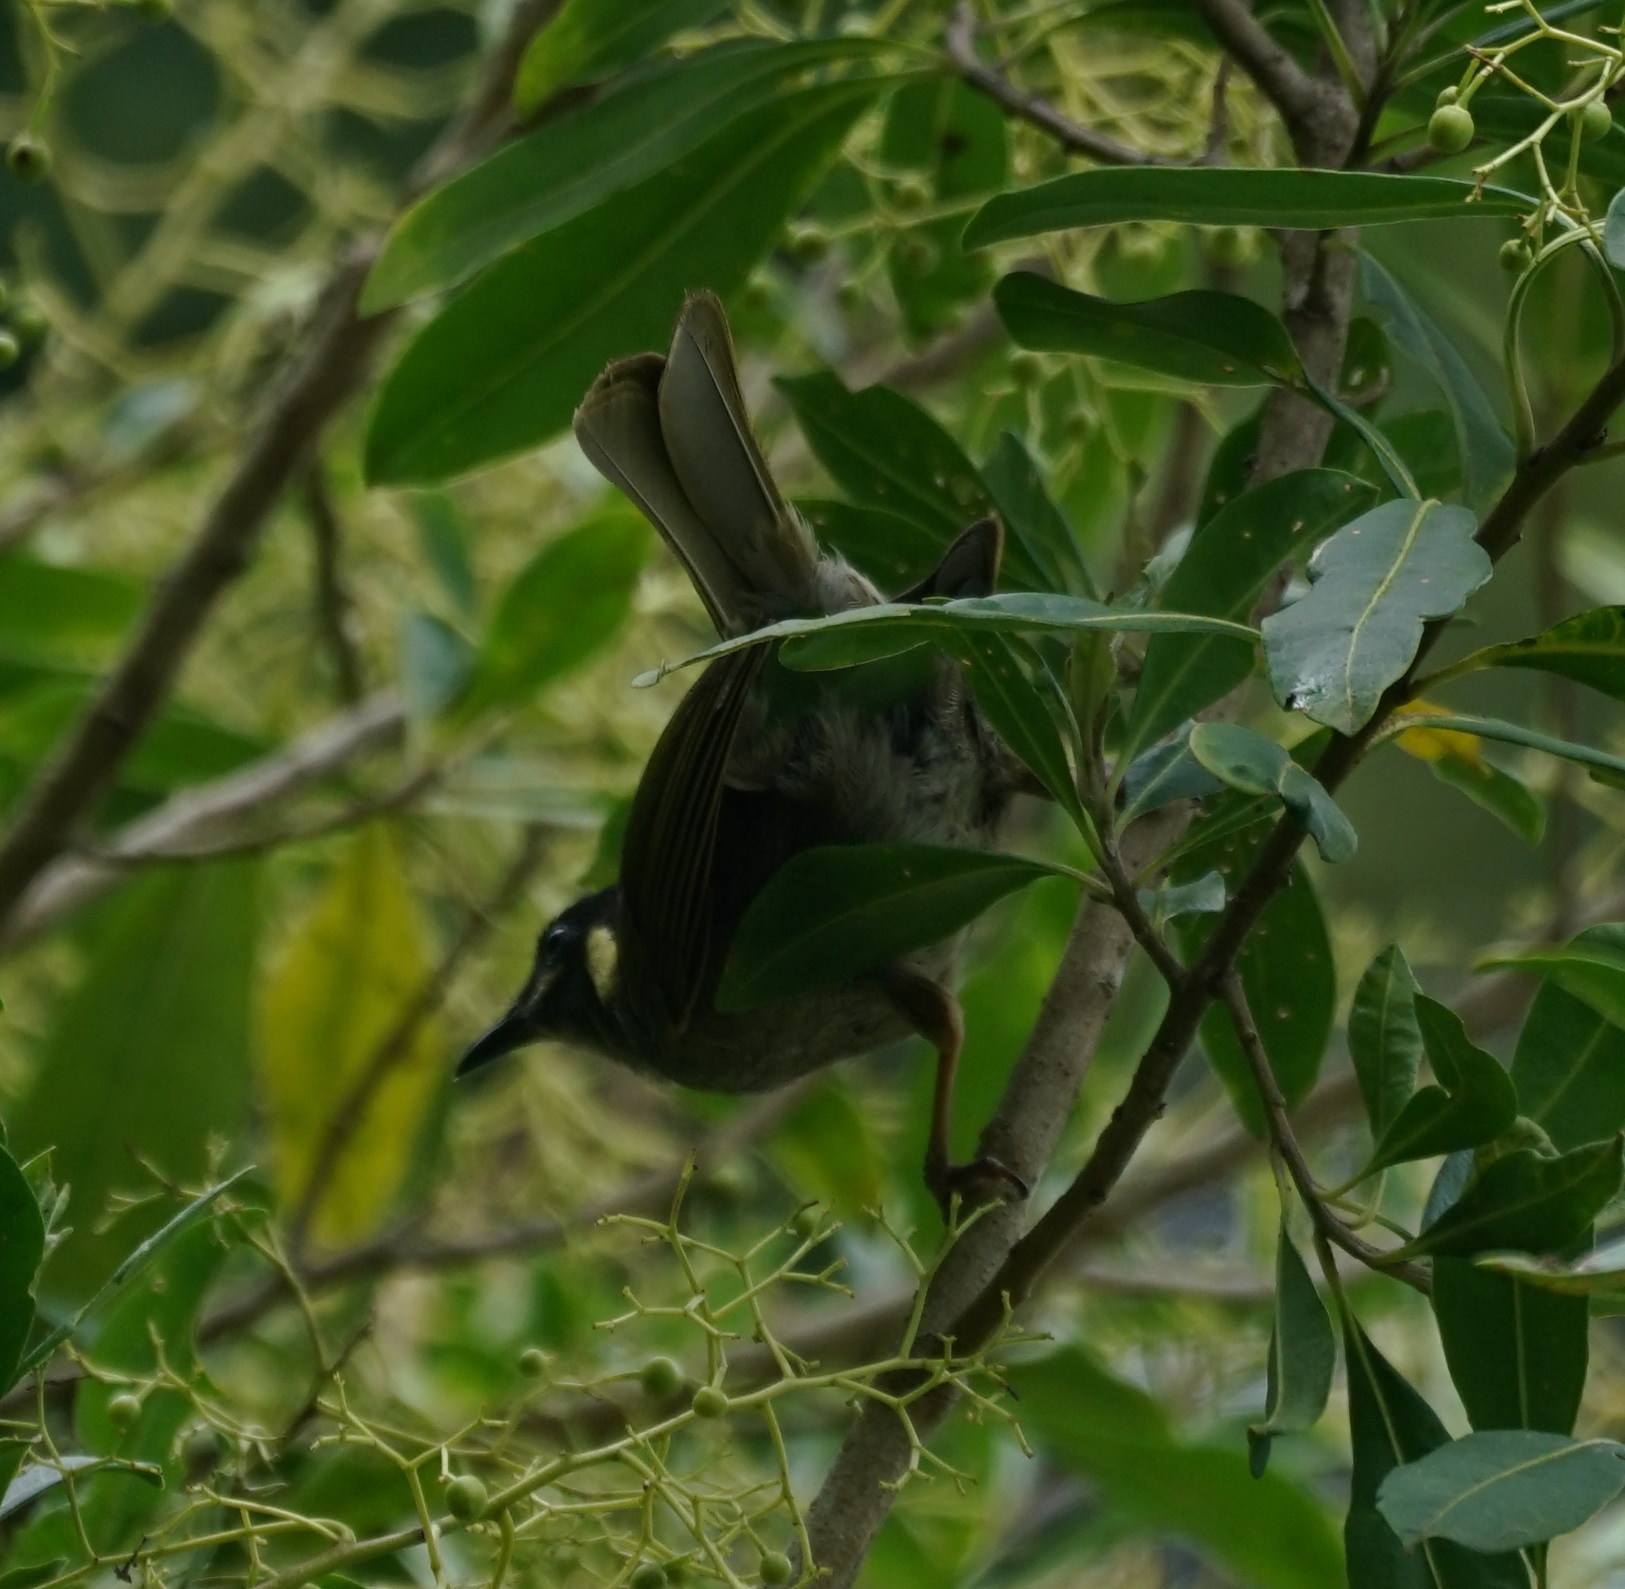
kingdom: Animalia
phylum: Chordata
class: Aves
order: Passeriformes
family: Meliphagidae
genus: Meliphaga
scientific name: Meliphaga lewinii
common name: Lewin's honeyeater
